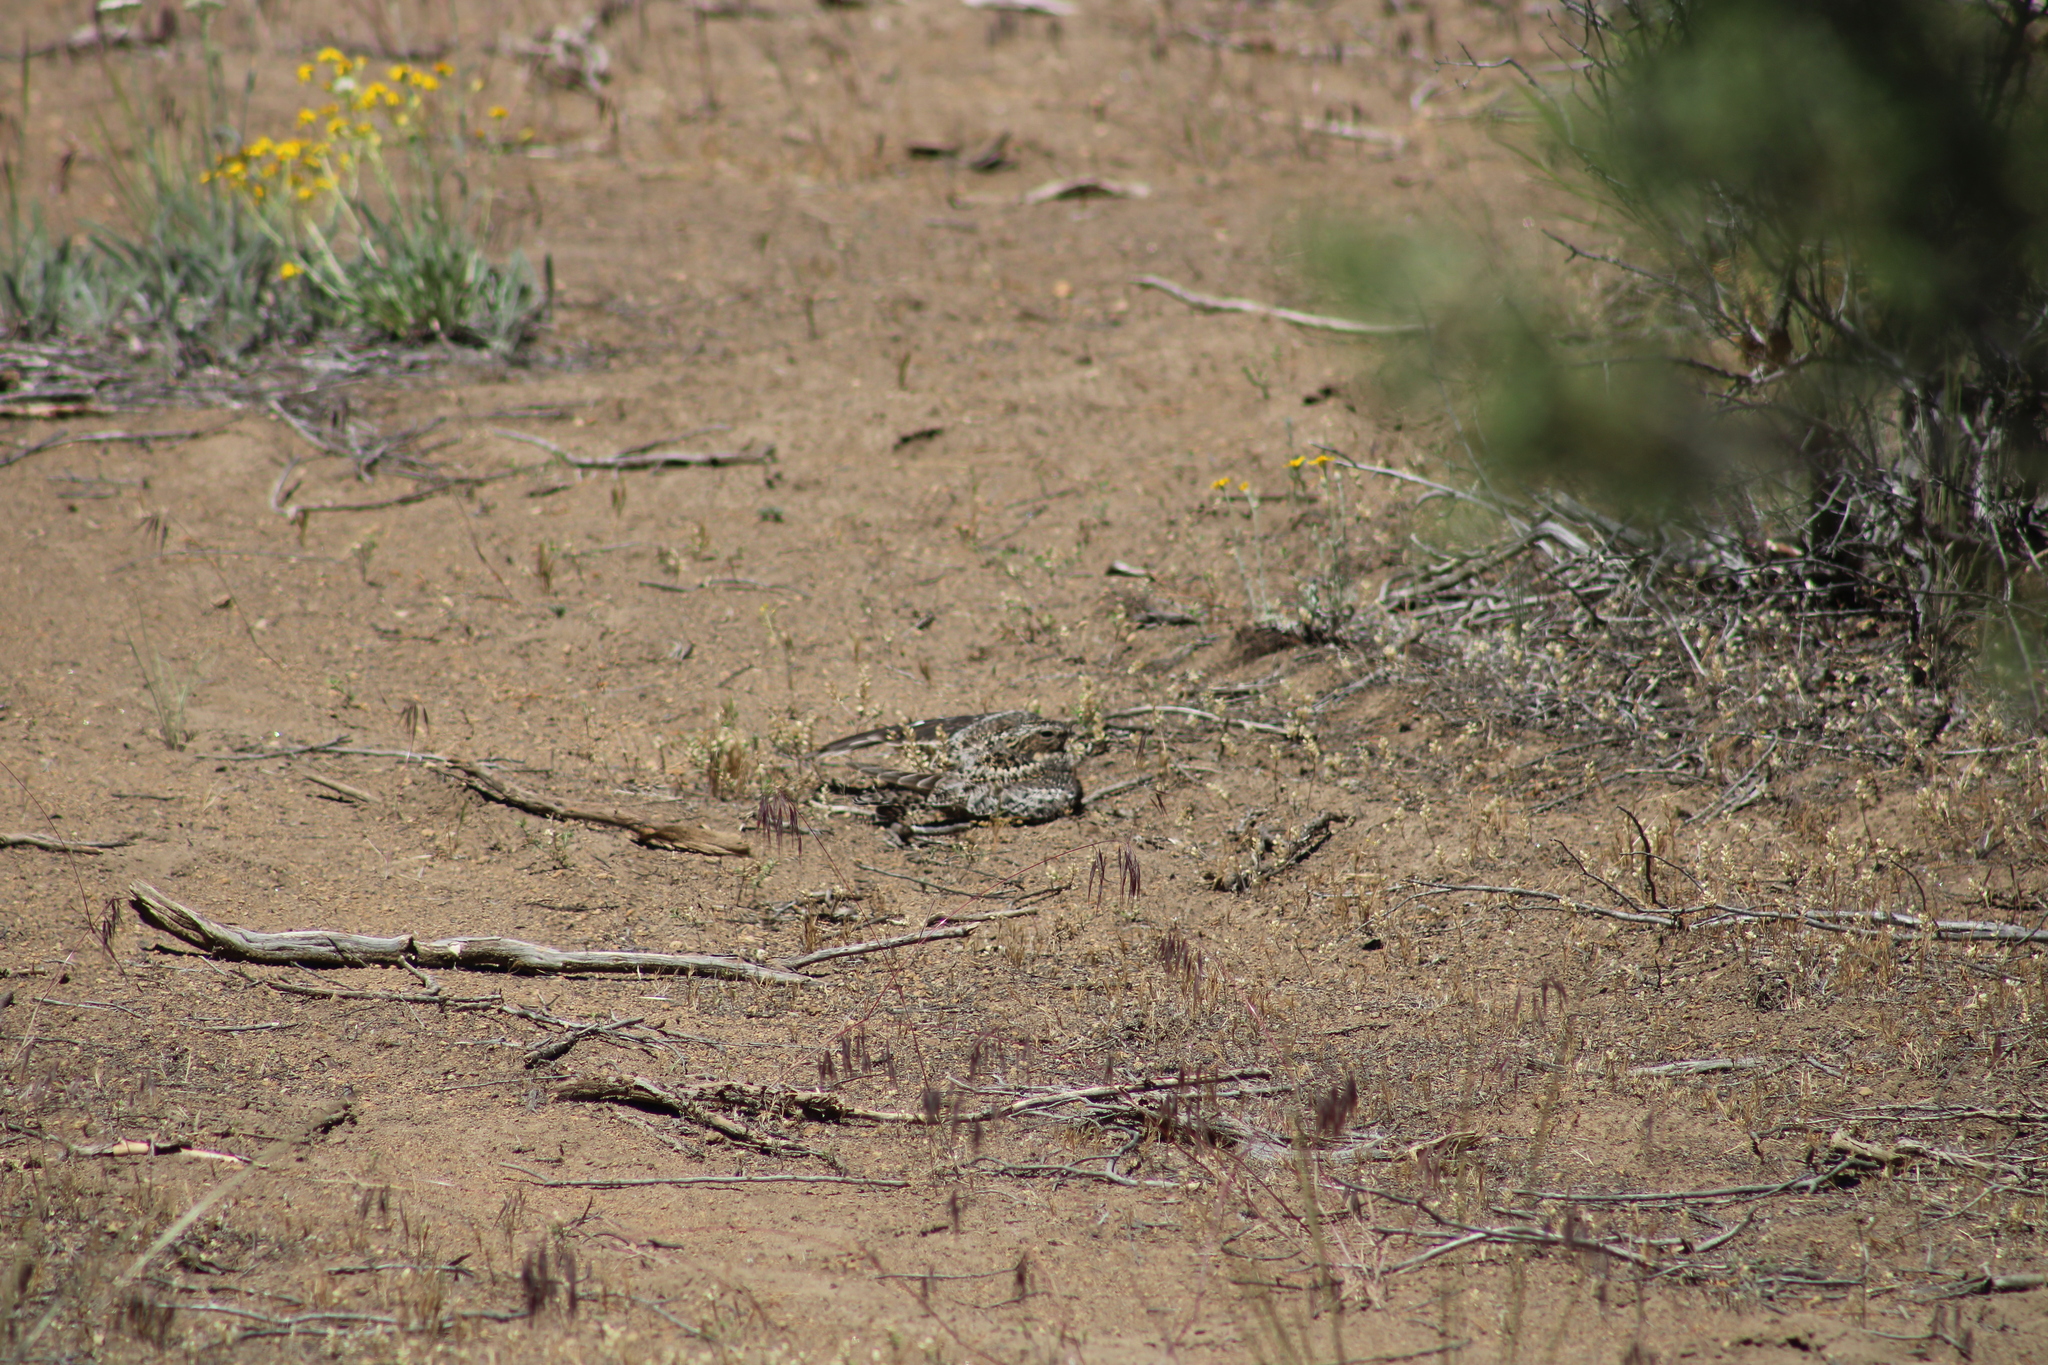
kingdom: Animalia
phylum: Chordata
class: Aves
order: Caprimulgiformes
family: Caprimulgidae
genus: Chordeiles
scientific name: Chordeiles minor
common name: Common nighthawk
